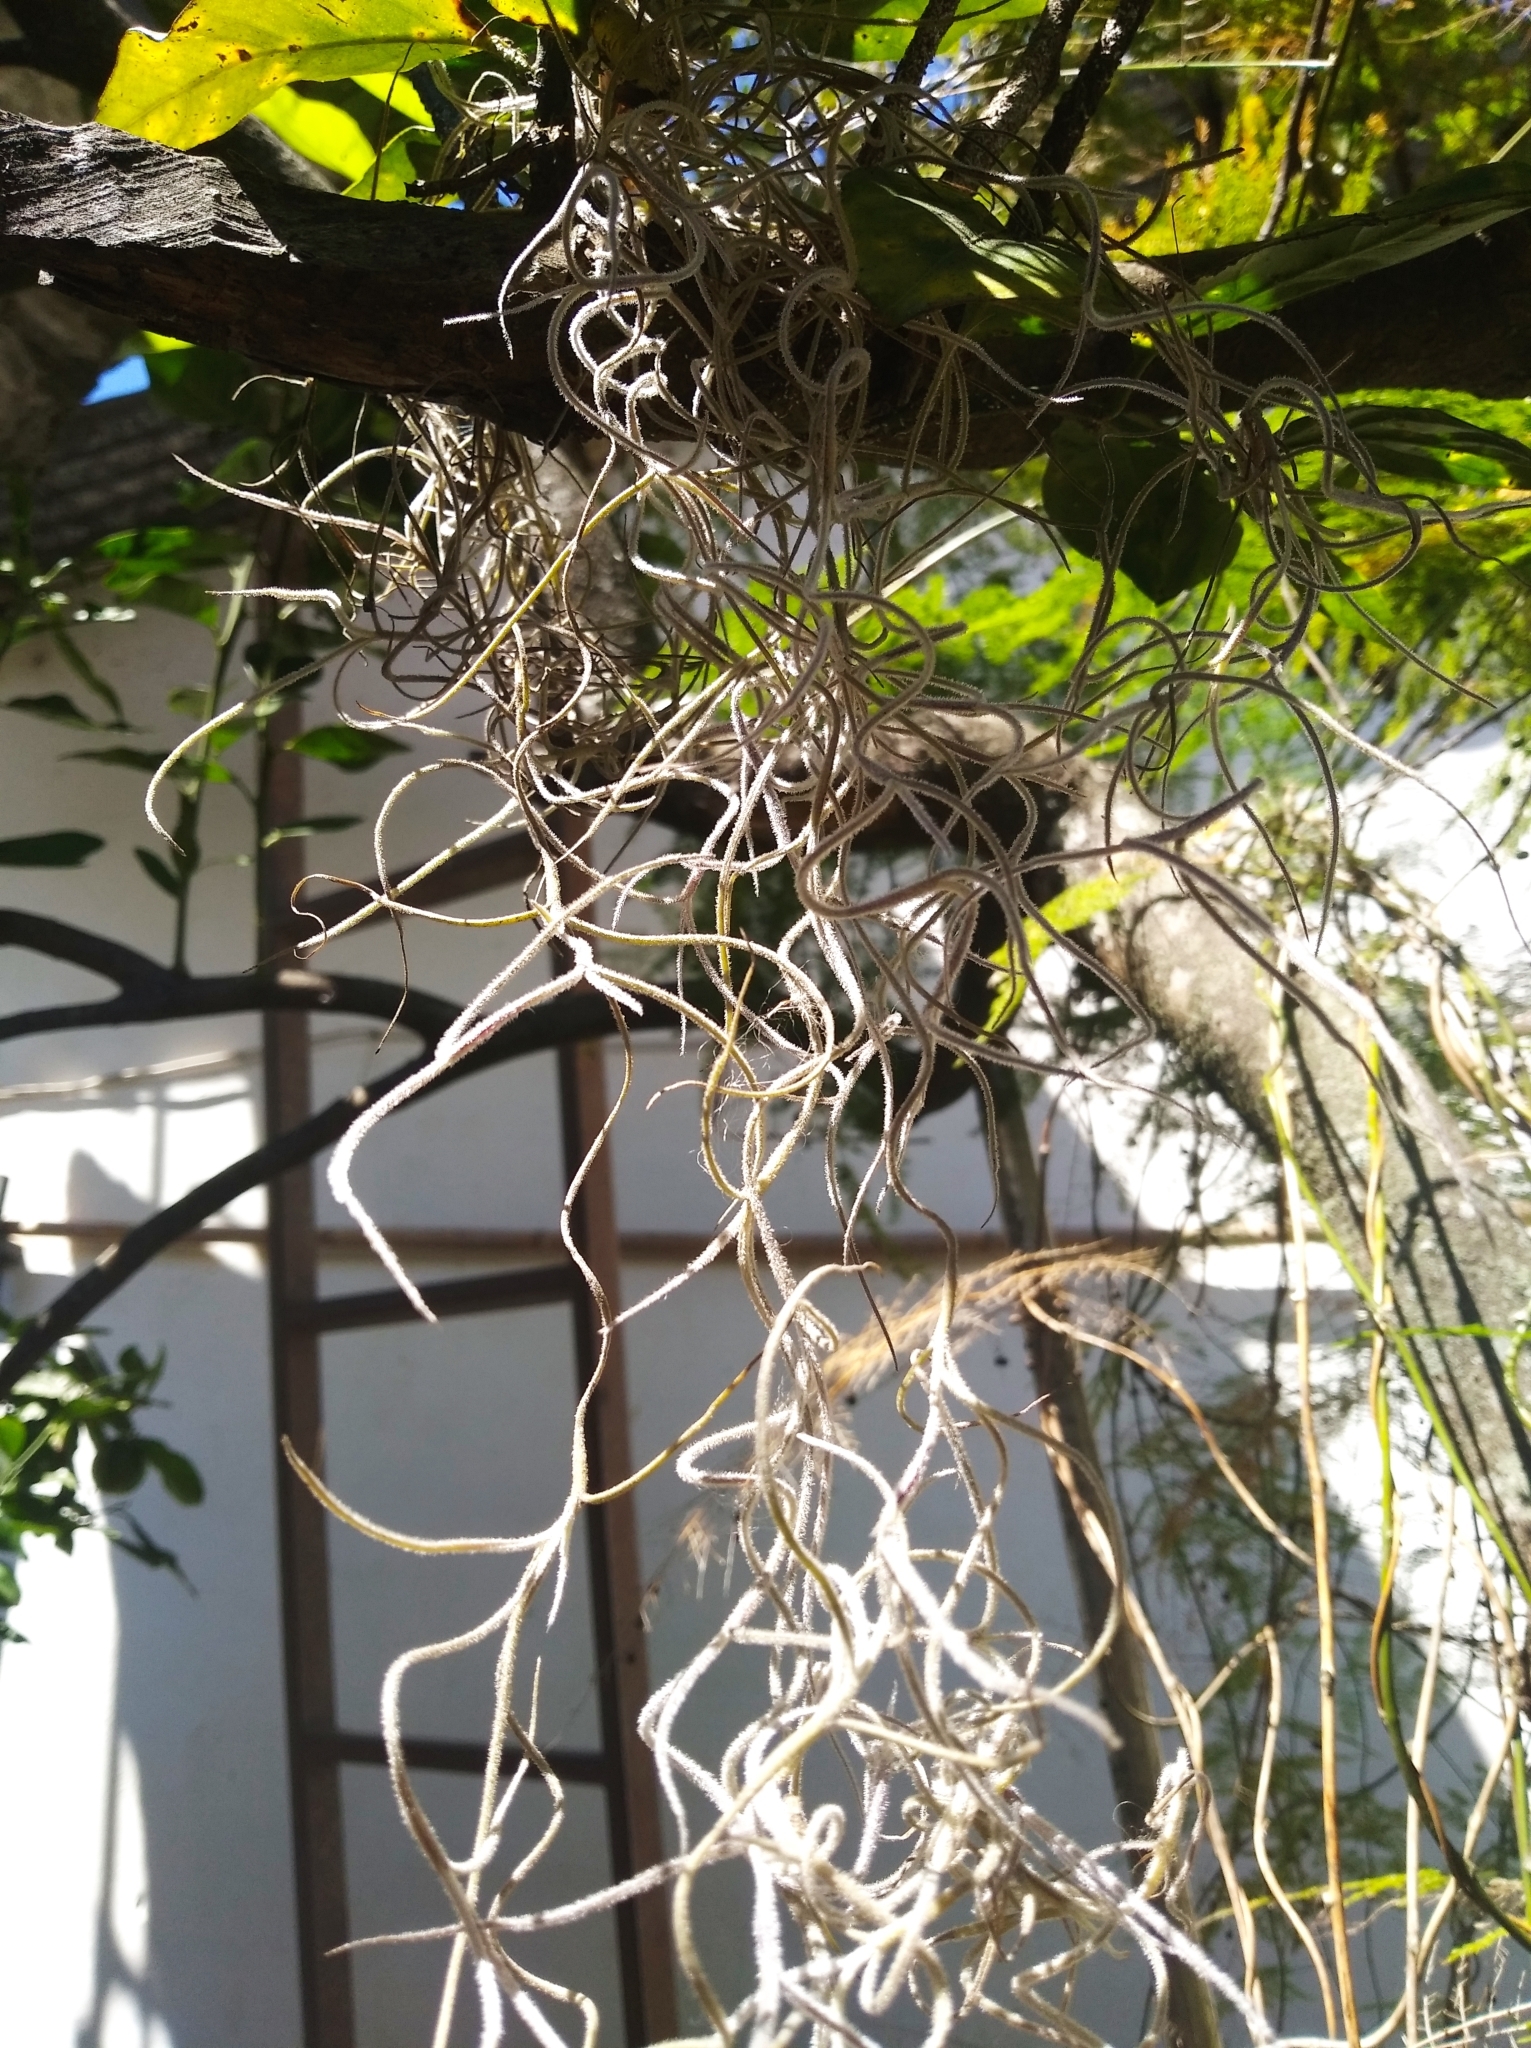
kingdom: Plantae
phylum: Tracheophyta
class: Liliopsida
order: Poales
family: Bromeliaceae
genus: Tillandsia
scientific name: Tillandsia usneoides
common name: Spanish moss
